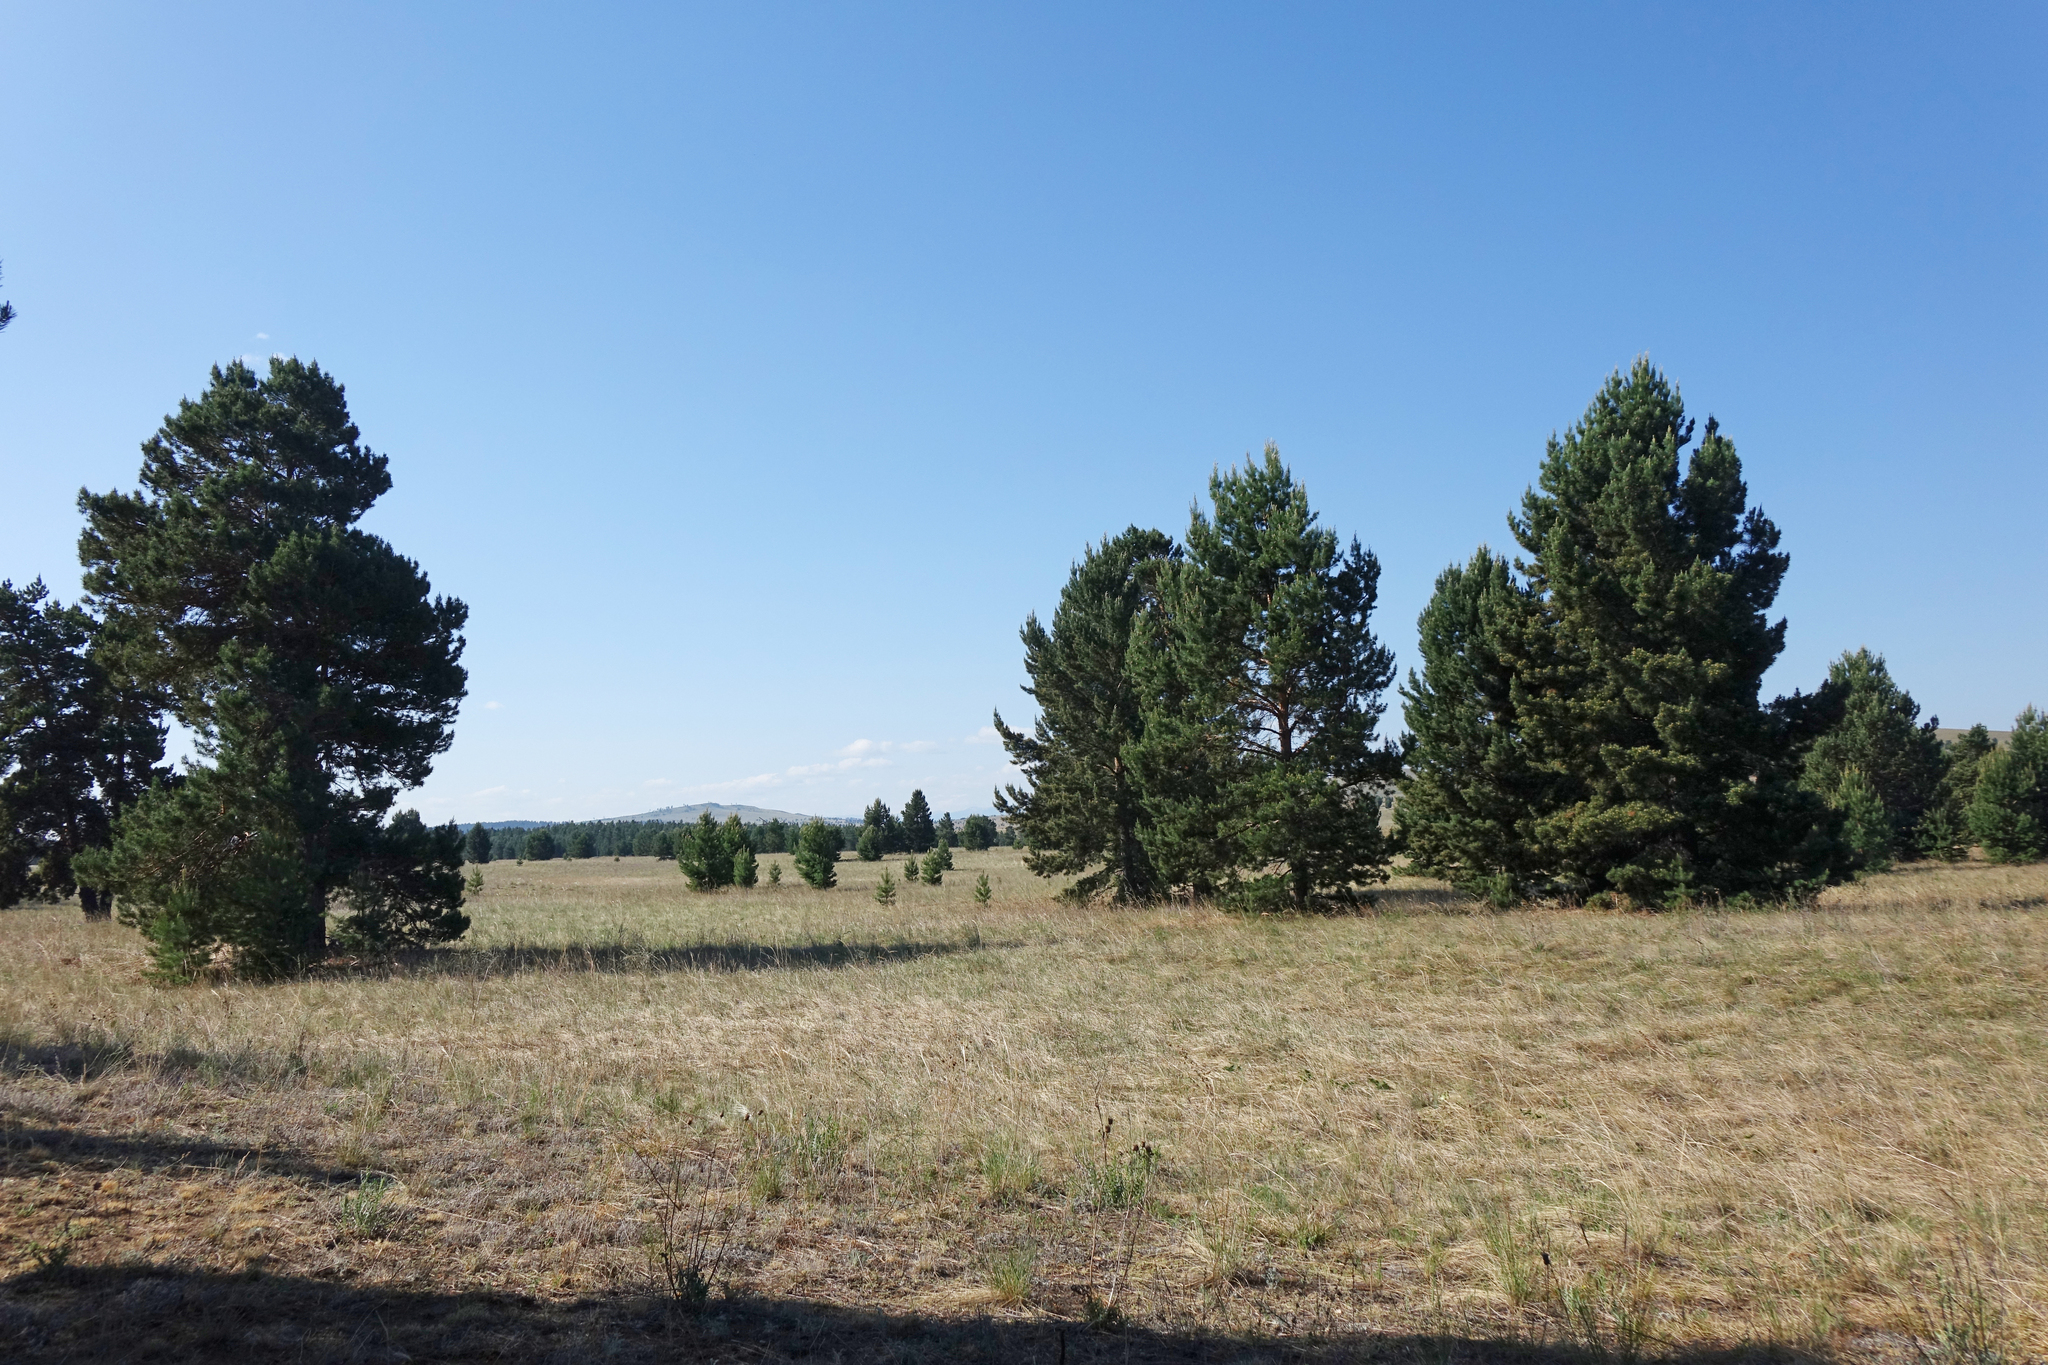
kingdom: Plantae
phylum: Tracheophyta
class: Pinopsida
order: Pinales
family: Pinaceae
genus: Pinus
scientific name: Pinus sylvestris
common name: Scots pine
